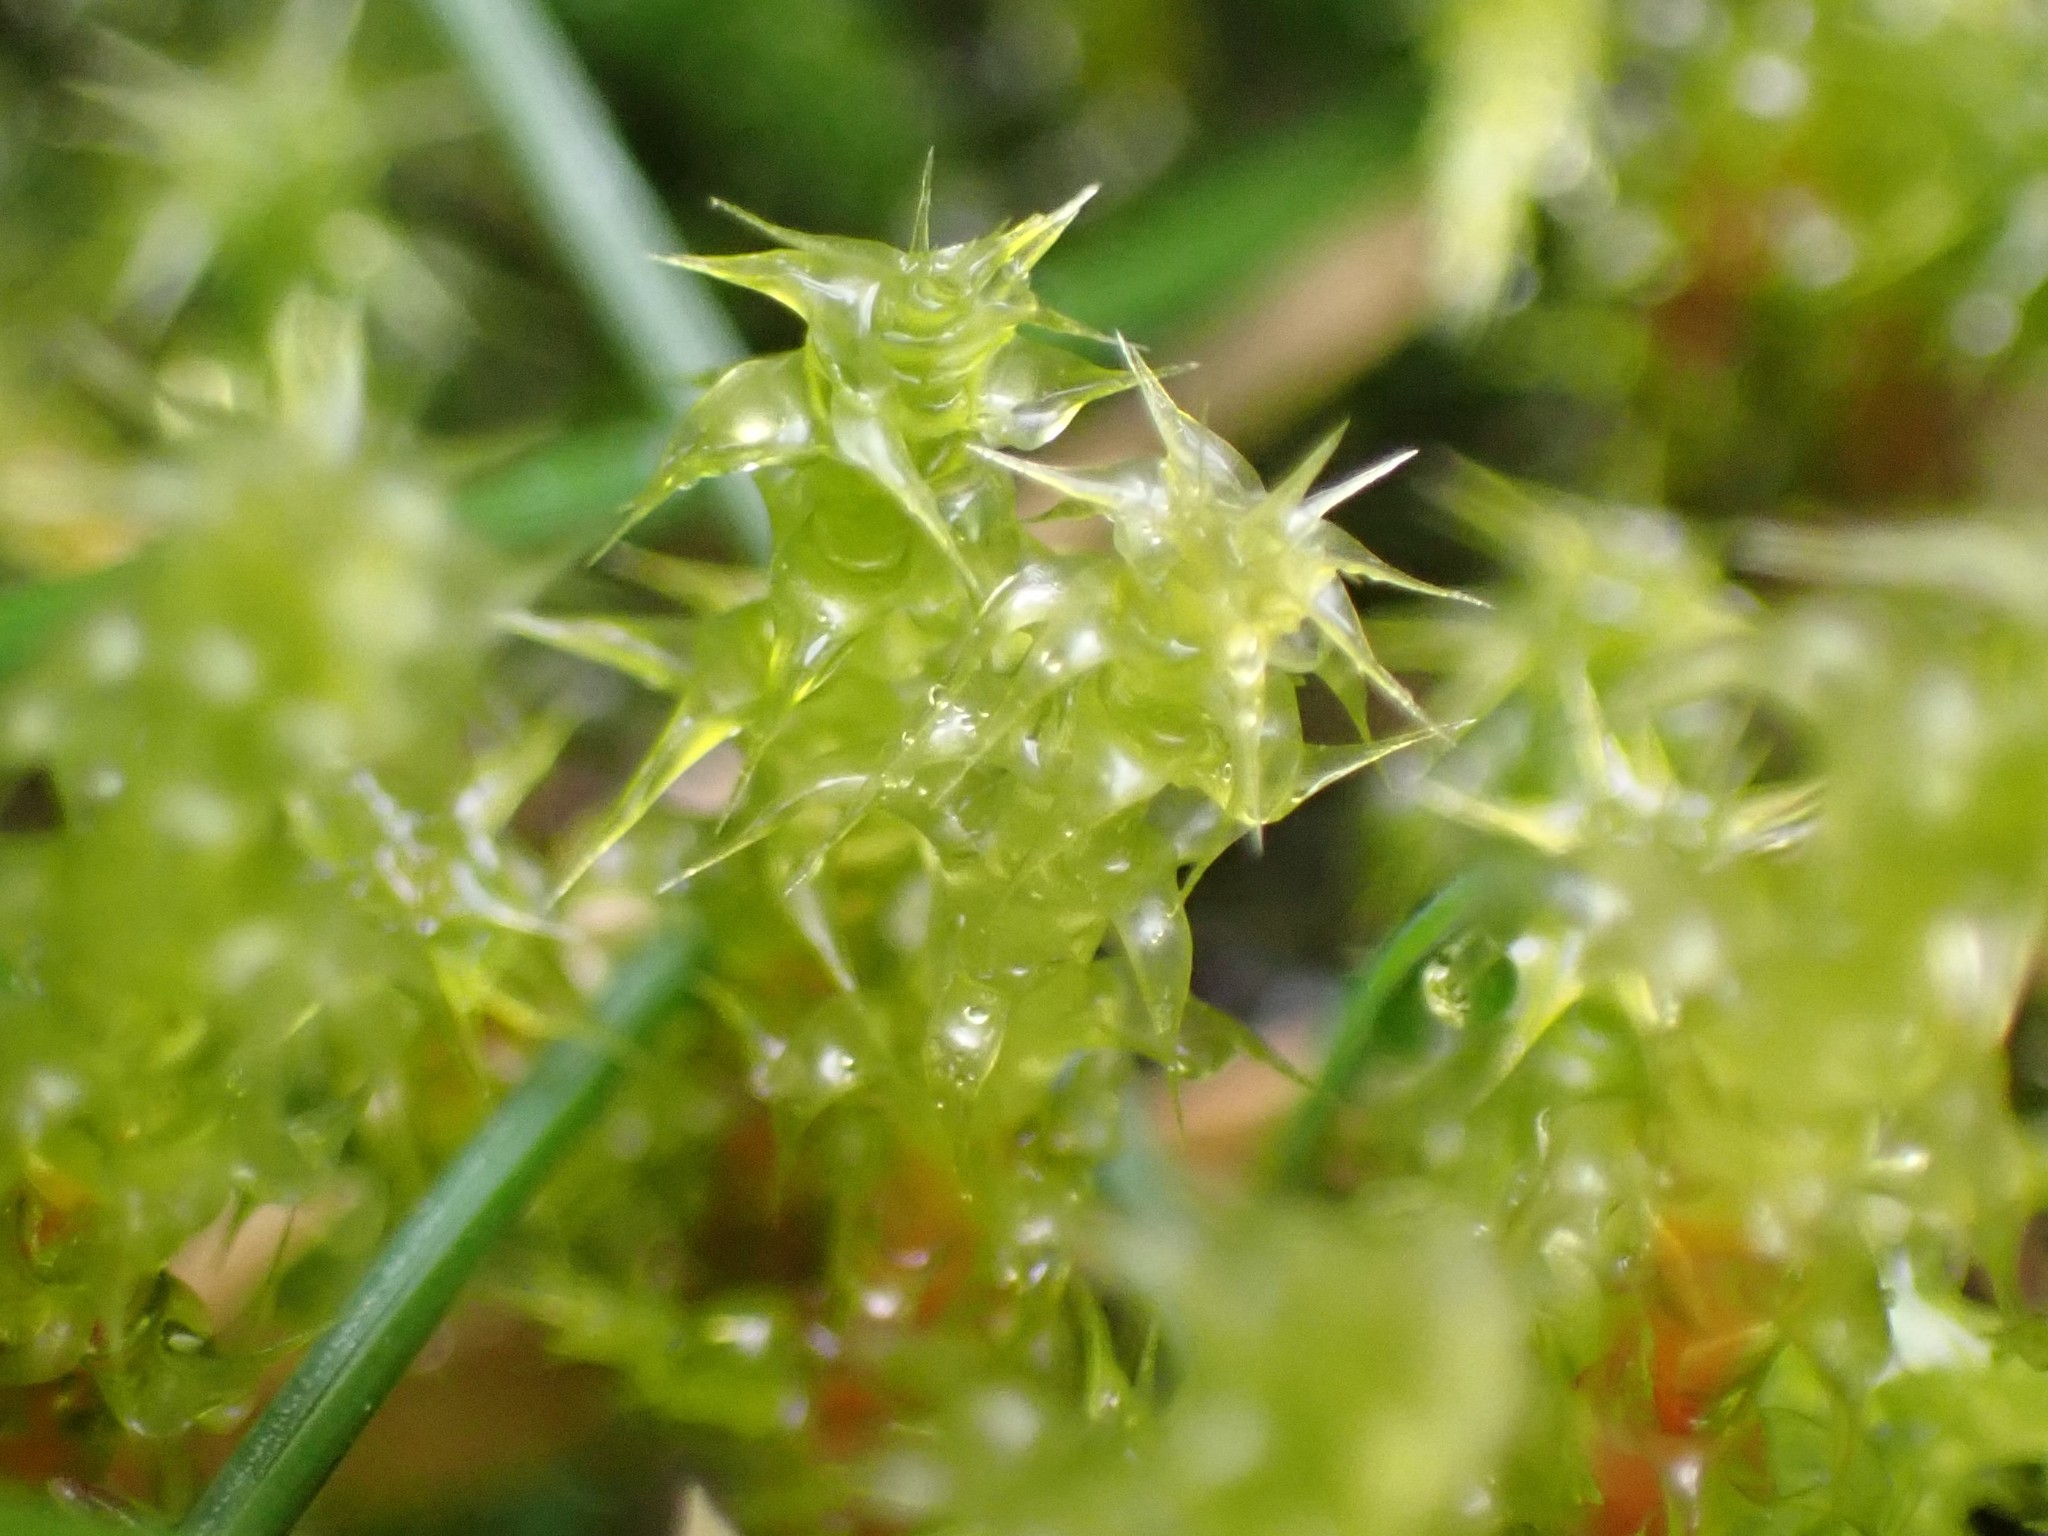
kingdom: Plantae
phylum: Bryophyta
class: Bryopsida
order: Hypnales
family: Hylocomiaceae
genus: Rhytidiadelphus
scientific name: Rhytidiadelphus squarrosus
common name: Springy turf-moss
